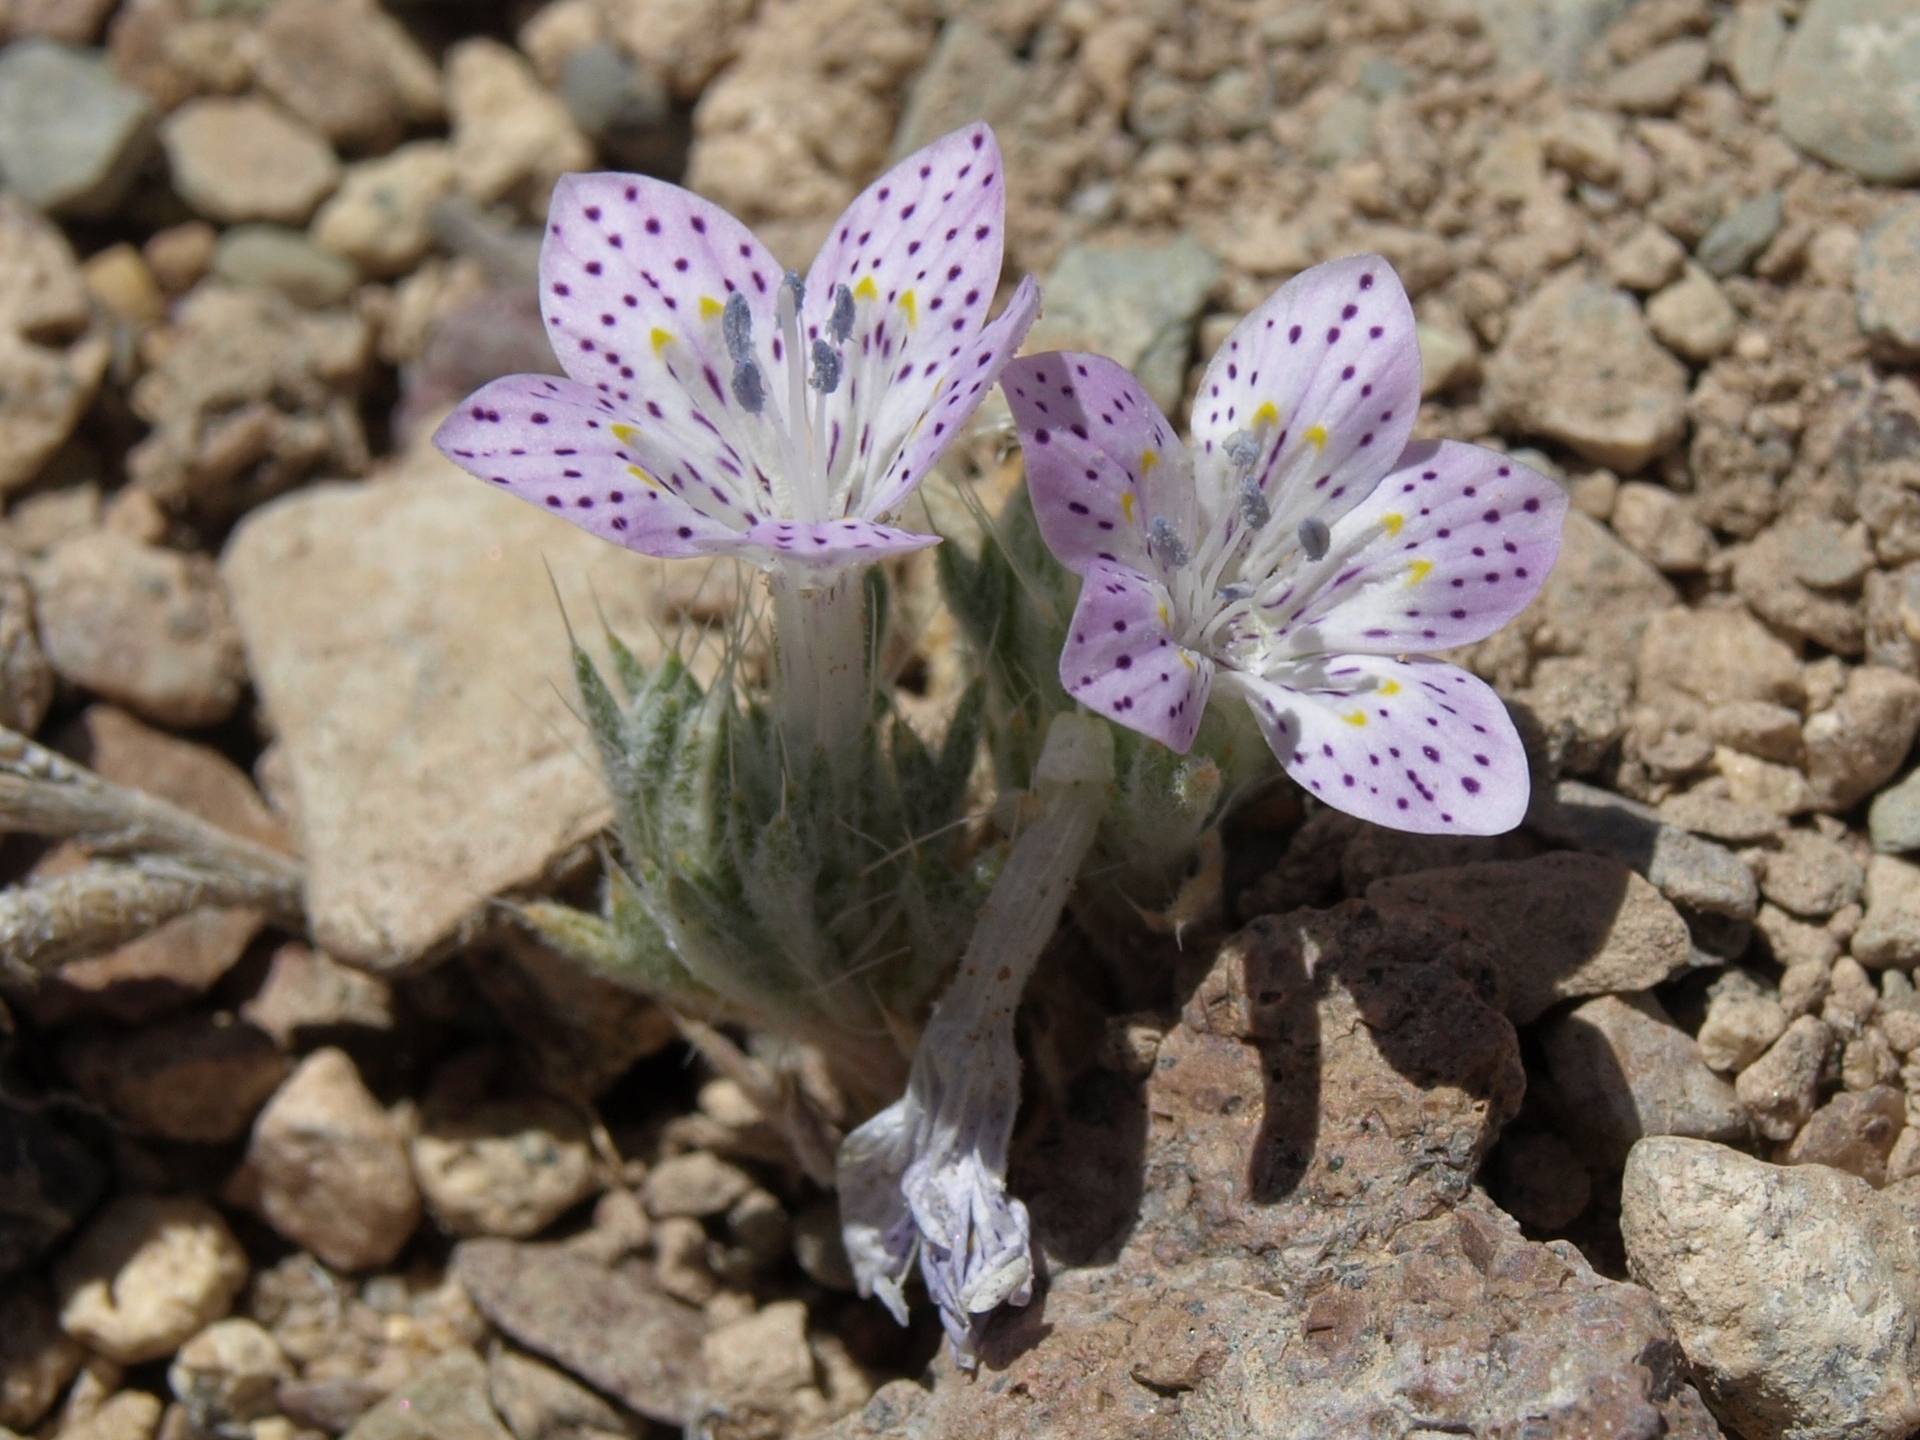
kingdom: Plantae
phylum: Tracheophyta
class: Magnoliopsida
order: Ericales
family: Polemoniaceae
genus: Langloisia
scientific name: Langloisia setosissima
